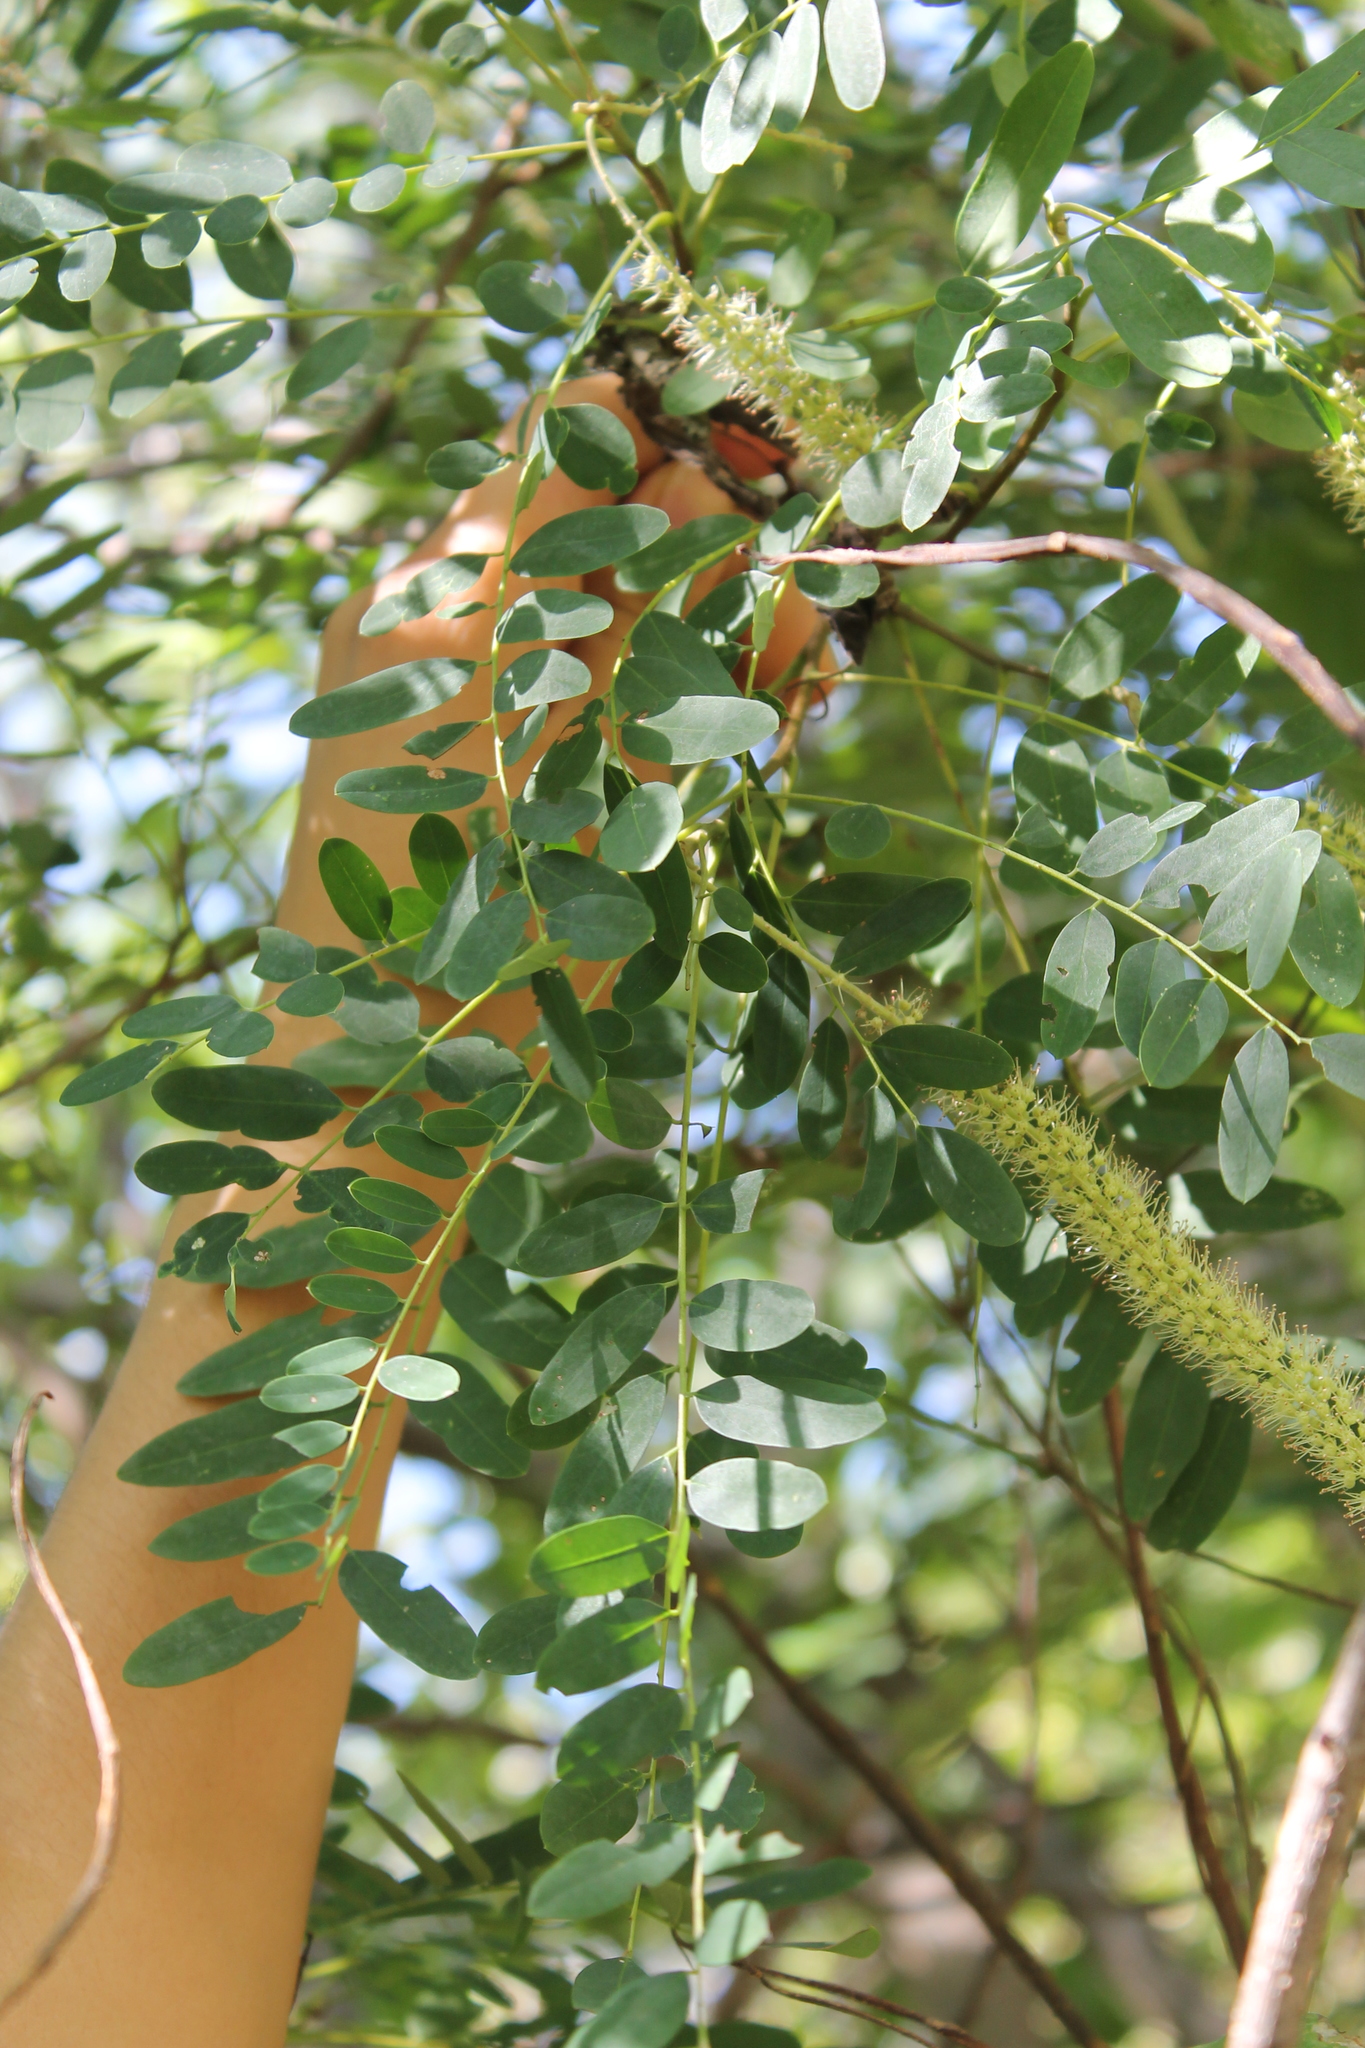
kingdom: Plantae
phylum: Tracheophyta
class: Magnoliopsida
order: Picramniales
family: Picramniaceae
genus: Alvaradoa
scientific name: Alvaradoa amorphoides
